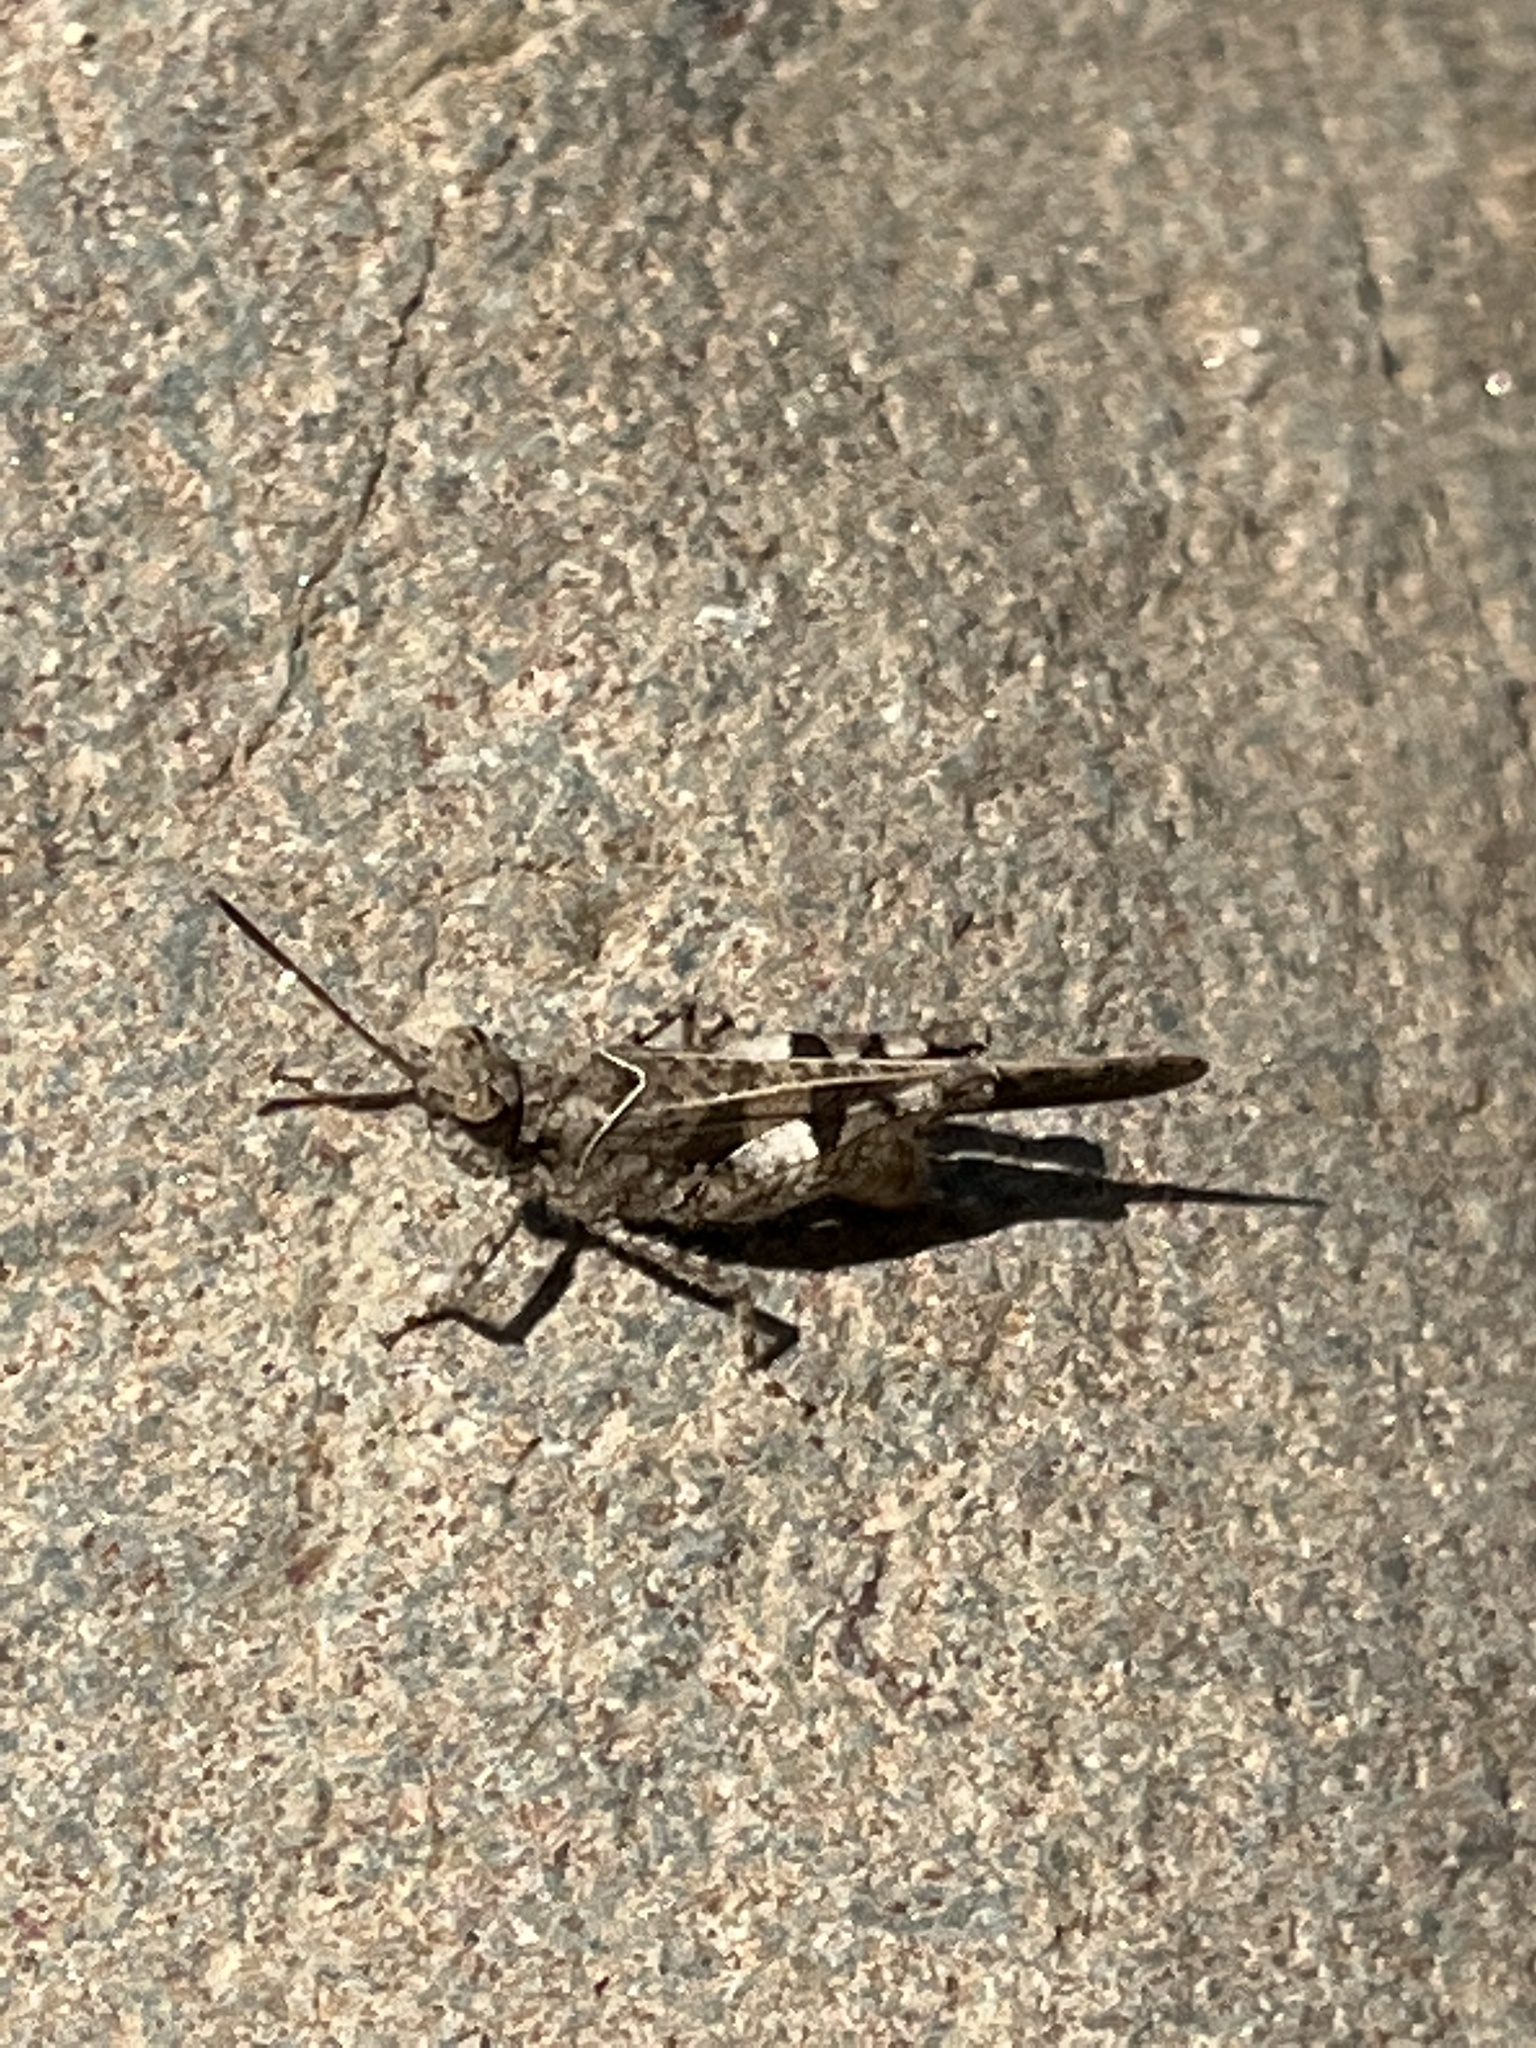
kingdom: Animalia
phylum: Arthropoda
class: Insecta
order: Orthoptera
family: Acrididae
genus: Trilophidia
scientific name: Trilophidia conturbata
